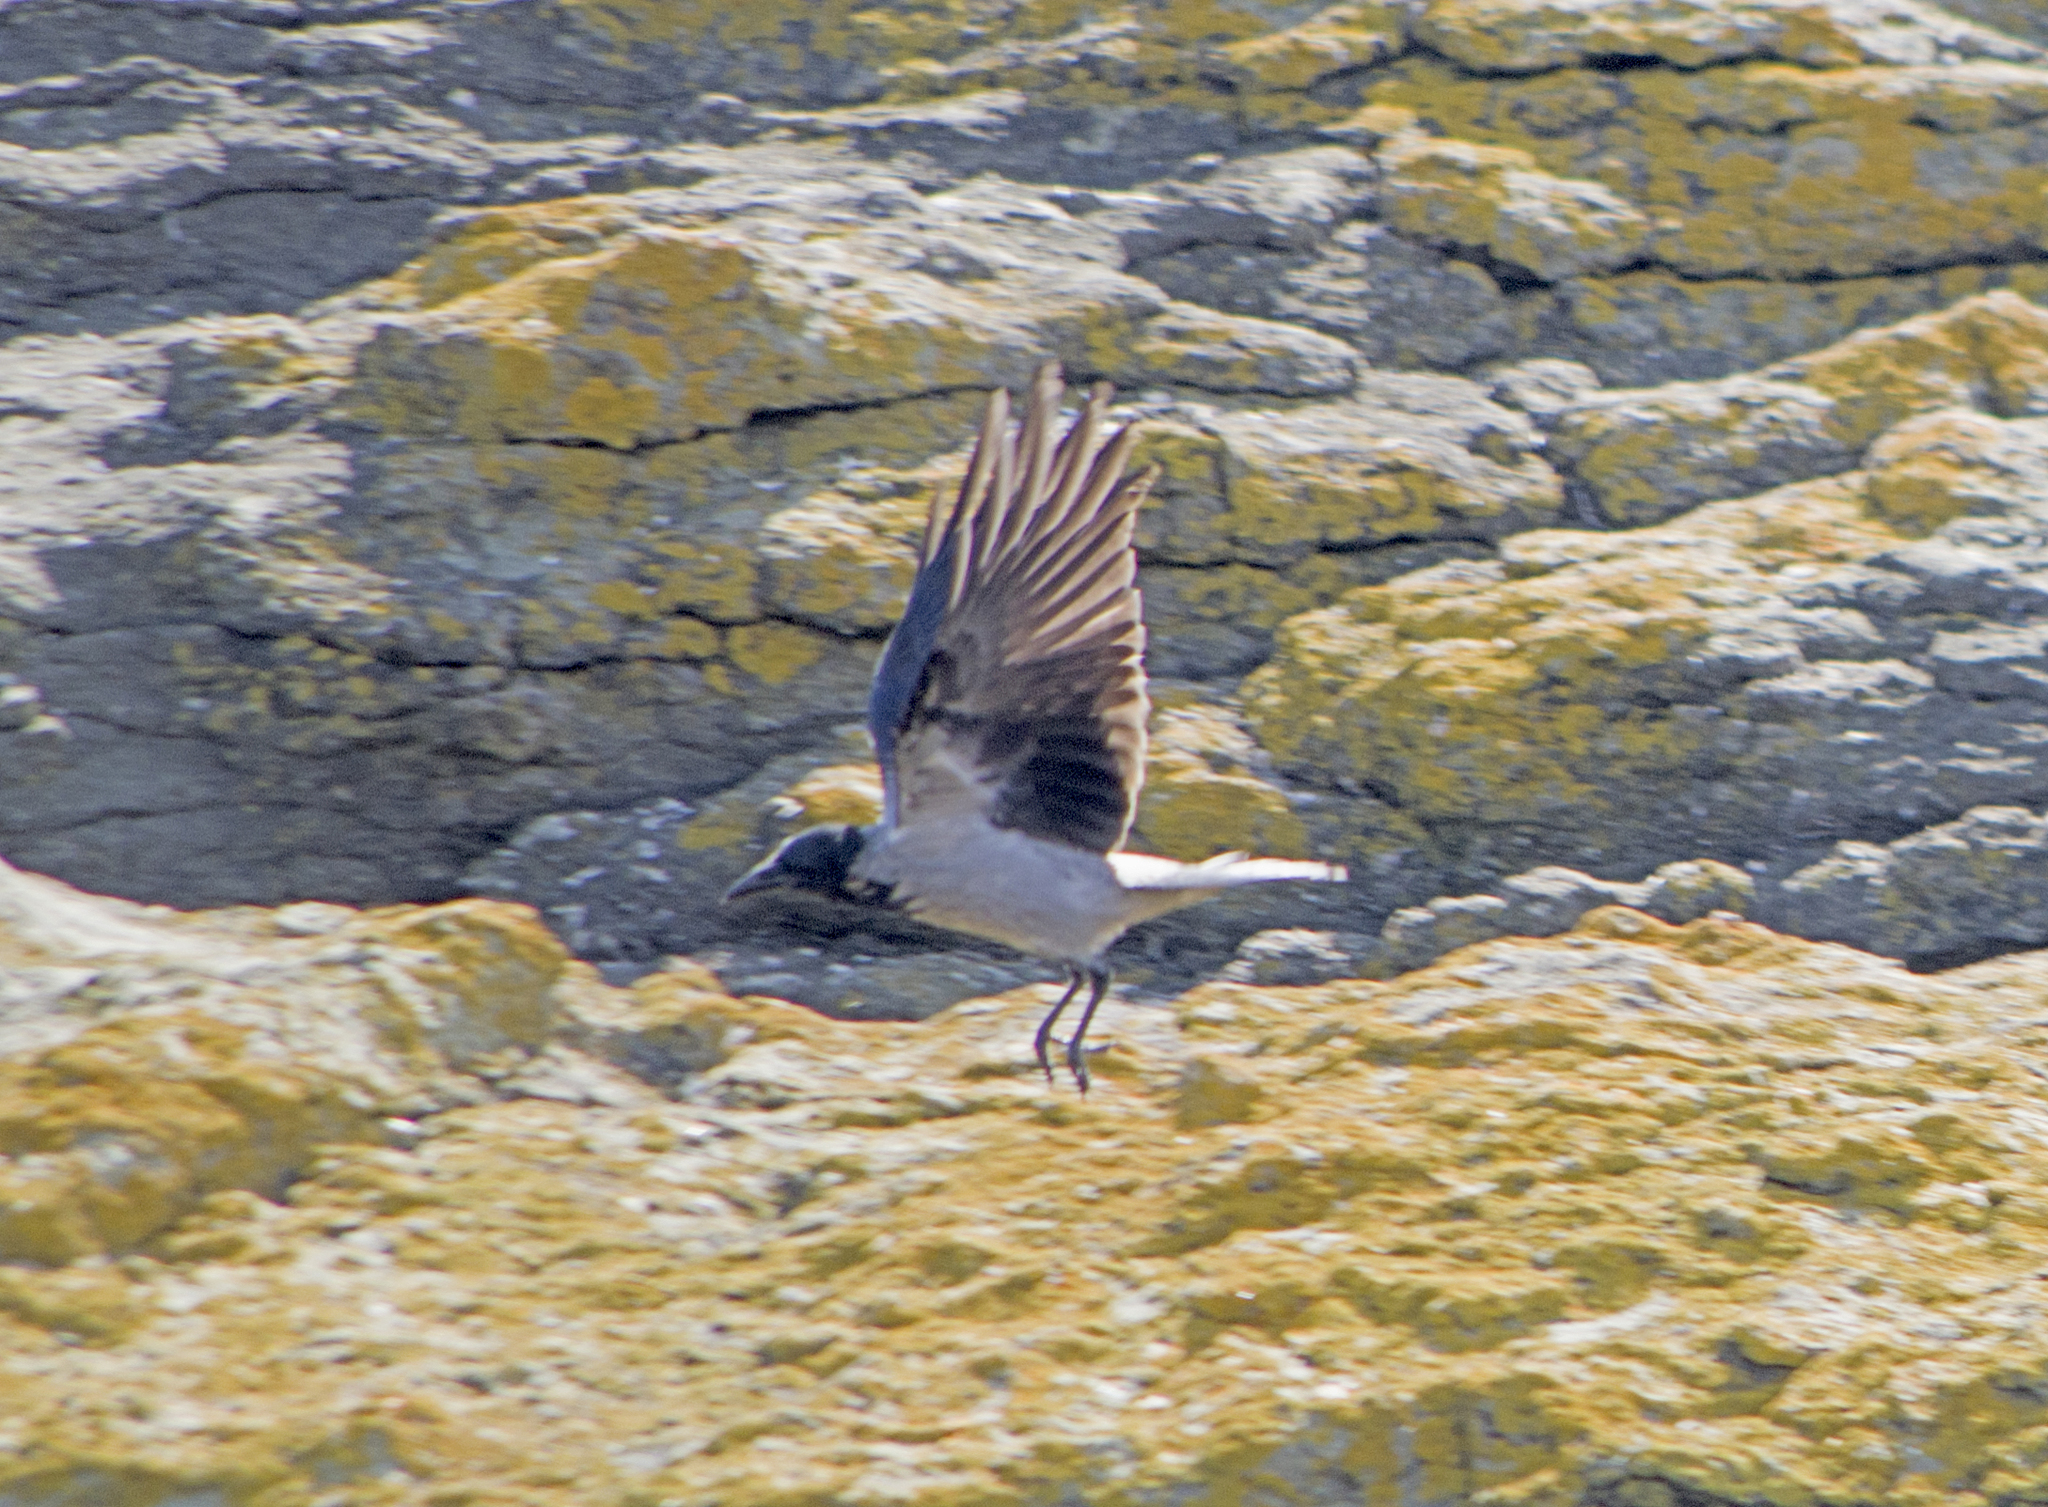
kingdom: Animalia
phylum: Chordata
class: Aves
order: Passeriformes
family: Corvidae
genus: Corvus
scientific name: Corvus cornix
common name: Hooded crow
